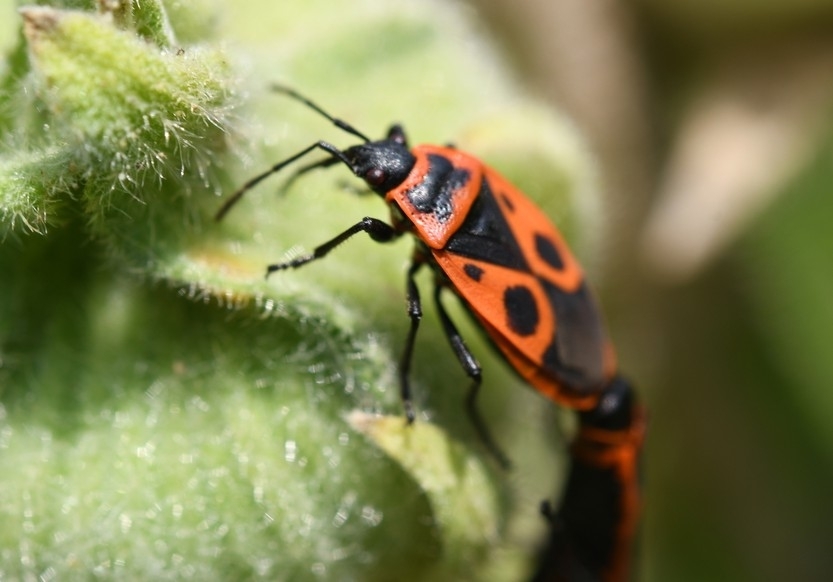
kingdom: Animalia
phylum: Arthropoda
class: Insecta
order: Hemiptera
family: Pyrrhocoridae
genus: Pyrrhocoris
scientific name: Pyrrhocoris apterus
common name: Firebug
